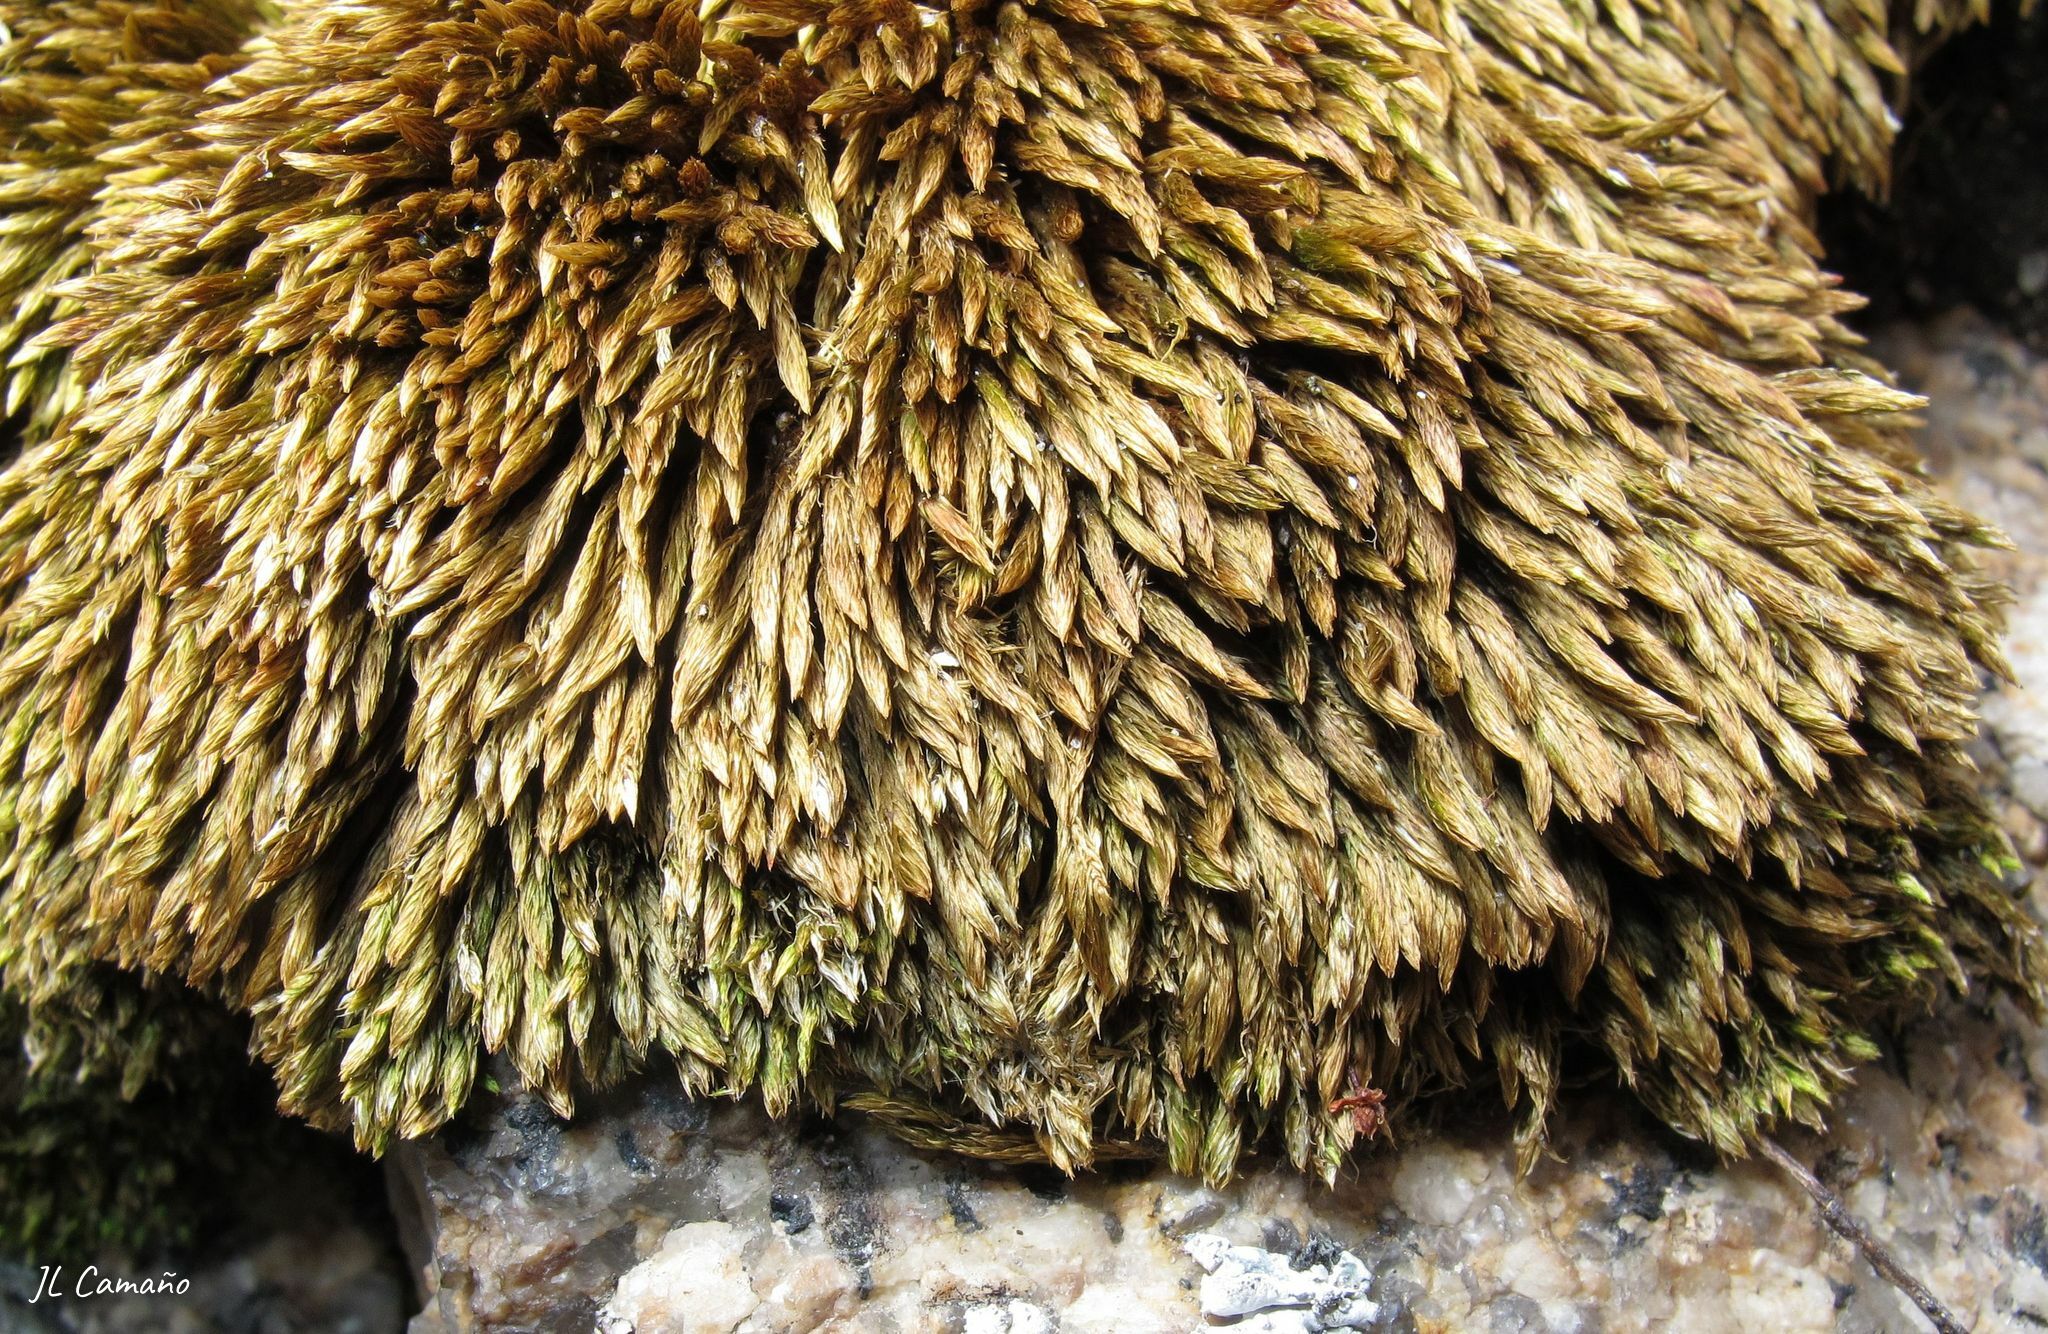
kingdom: Plantae
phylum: Bryophyta
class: Bryopsida
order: Bryales
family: Bryaceae
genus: Imbribryum
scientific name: Imbribryum mildeanum
